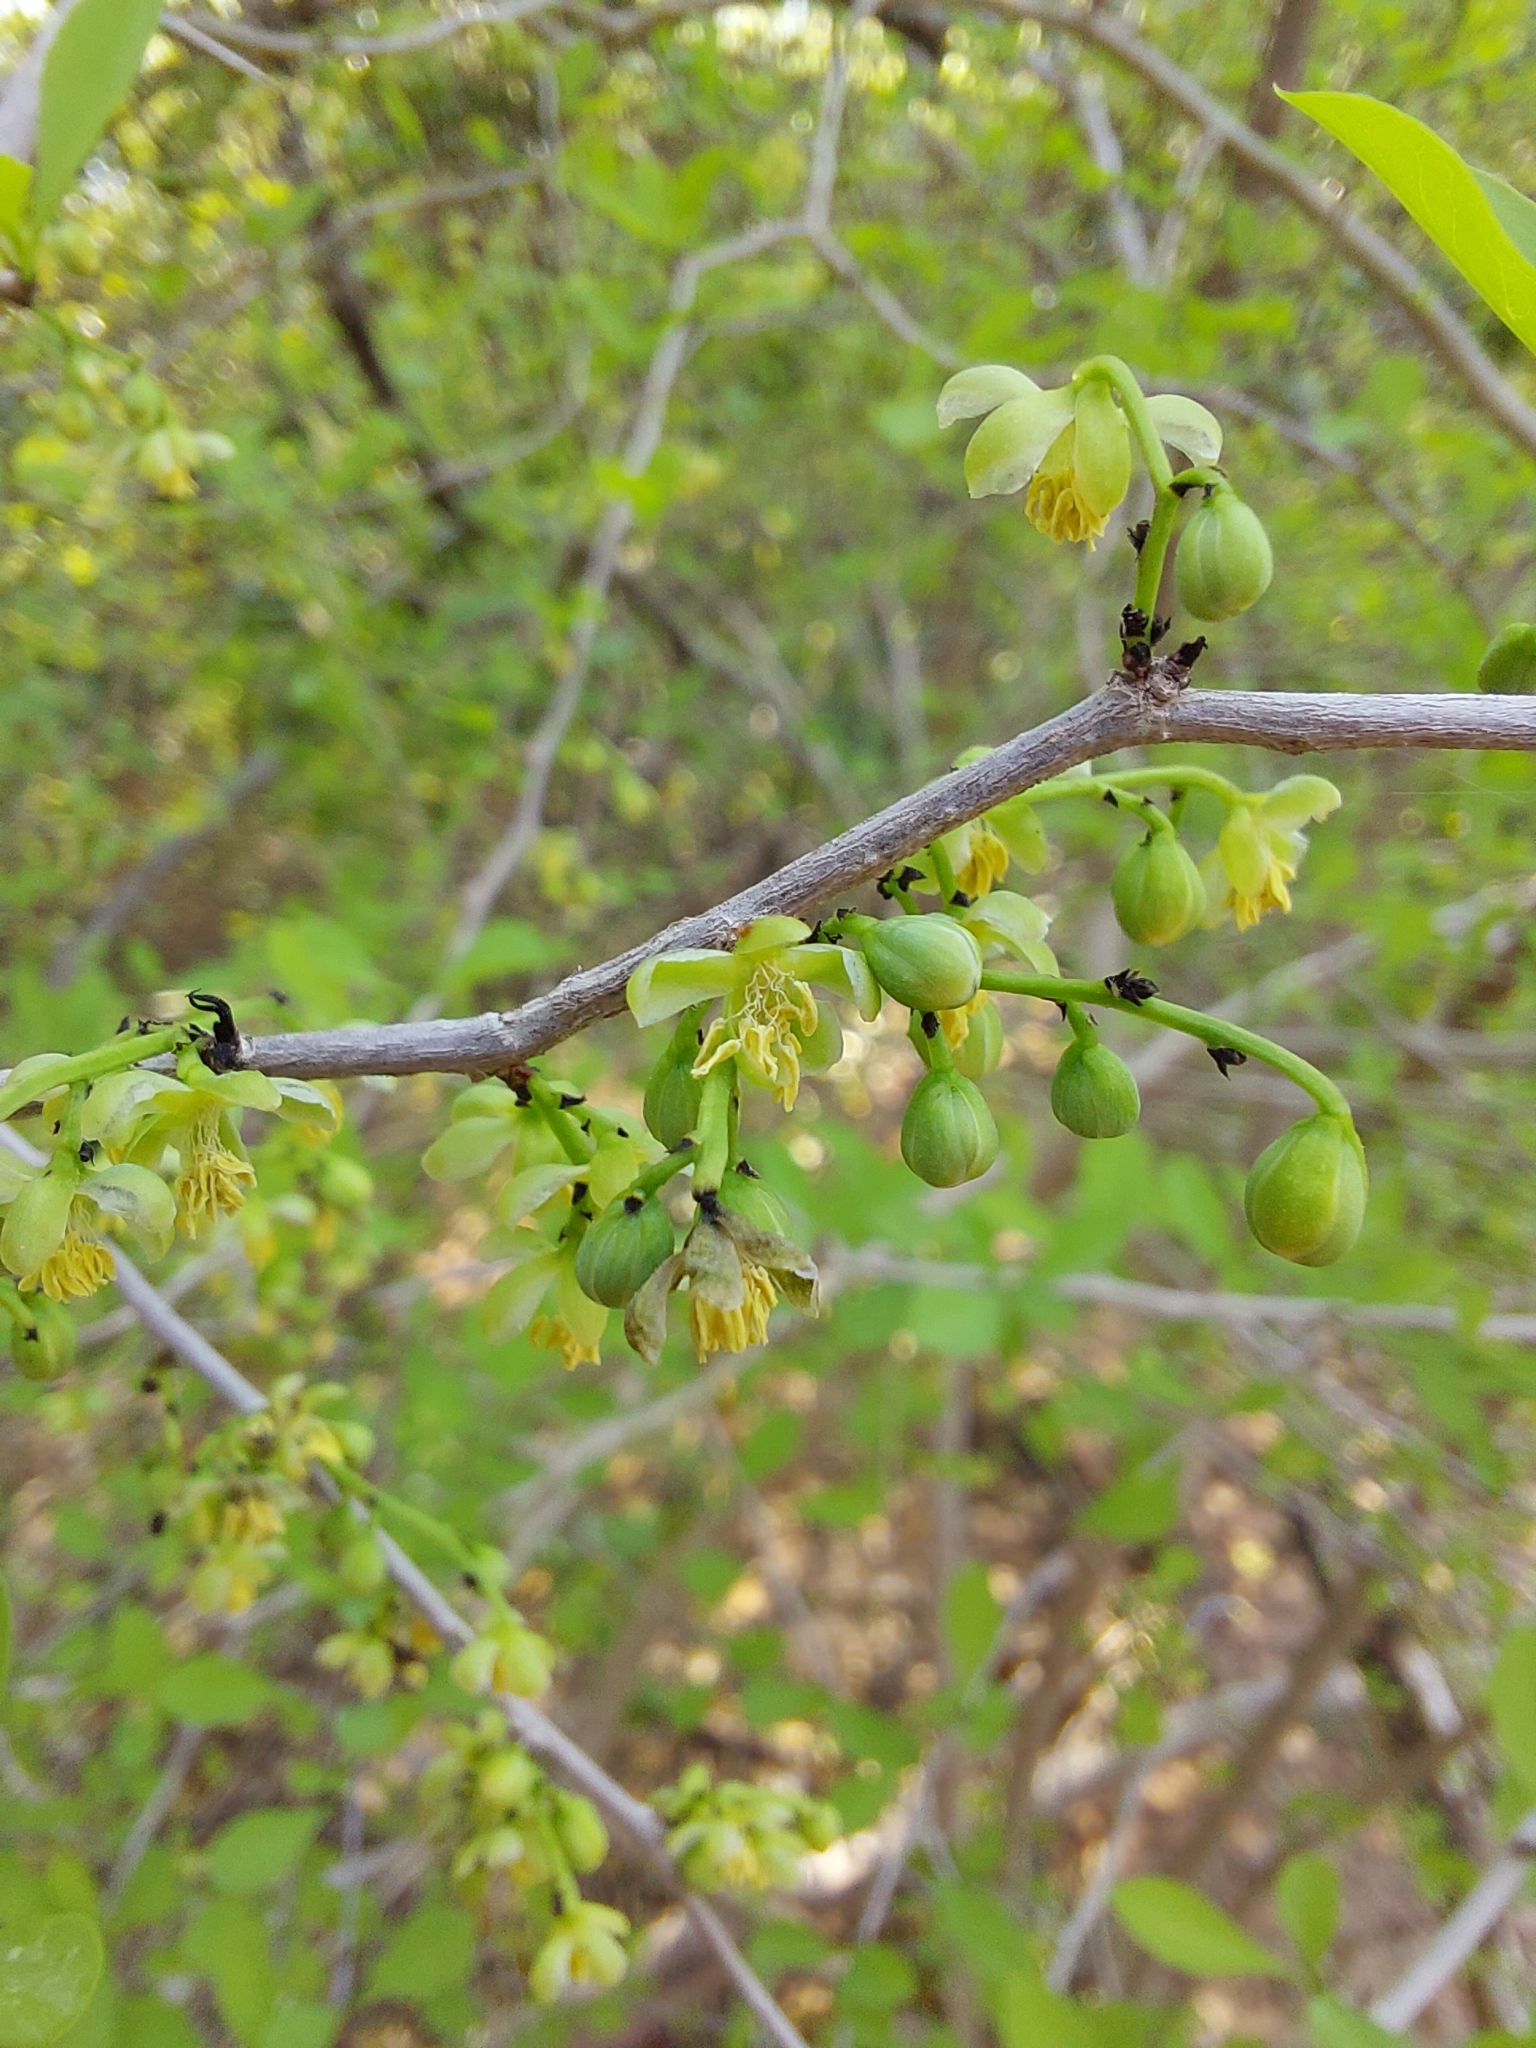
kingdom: Plantae
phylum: Tracheophyta
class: Magnoliopsida
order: Caryophyllales
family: Achatocarpaceae
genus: Achatocarpus
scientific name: Achatocarpus praecox
